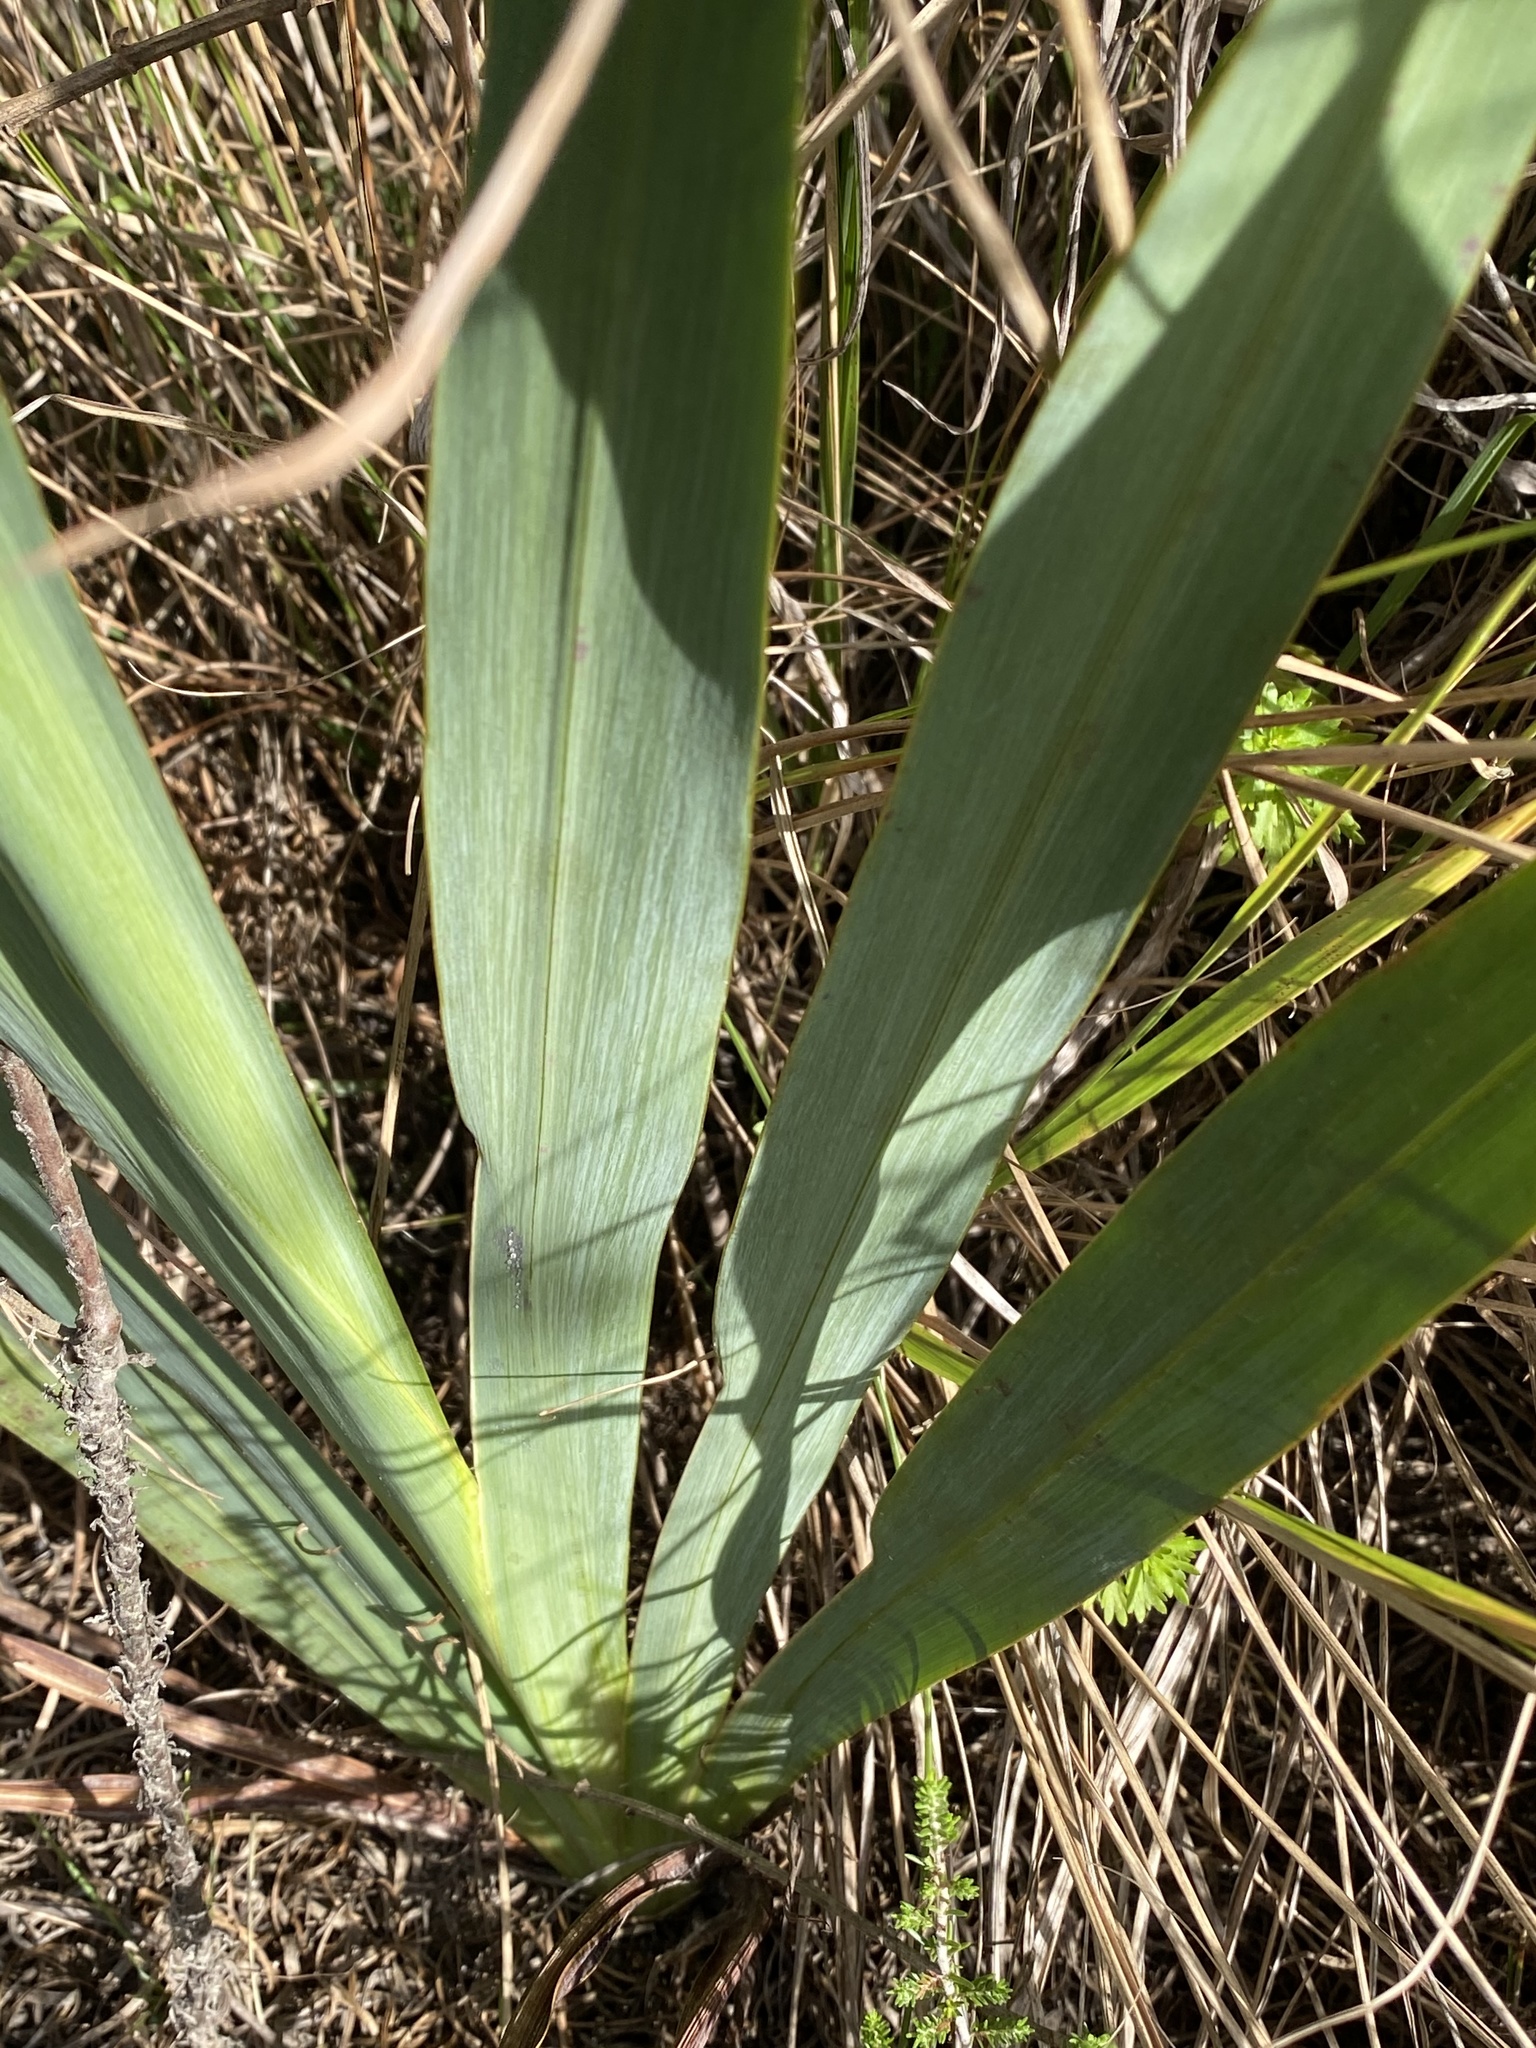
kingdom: Plantae
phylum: Tracheophyta
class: Liliopsida
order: Asparagales
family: Iridaceae
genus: Watsonia
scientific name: Watsonia wilmaniae
